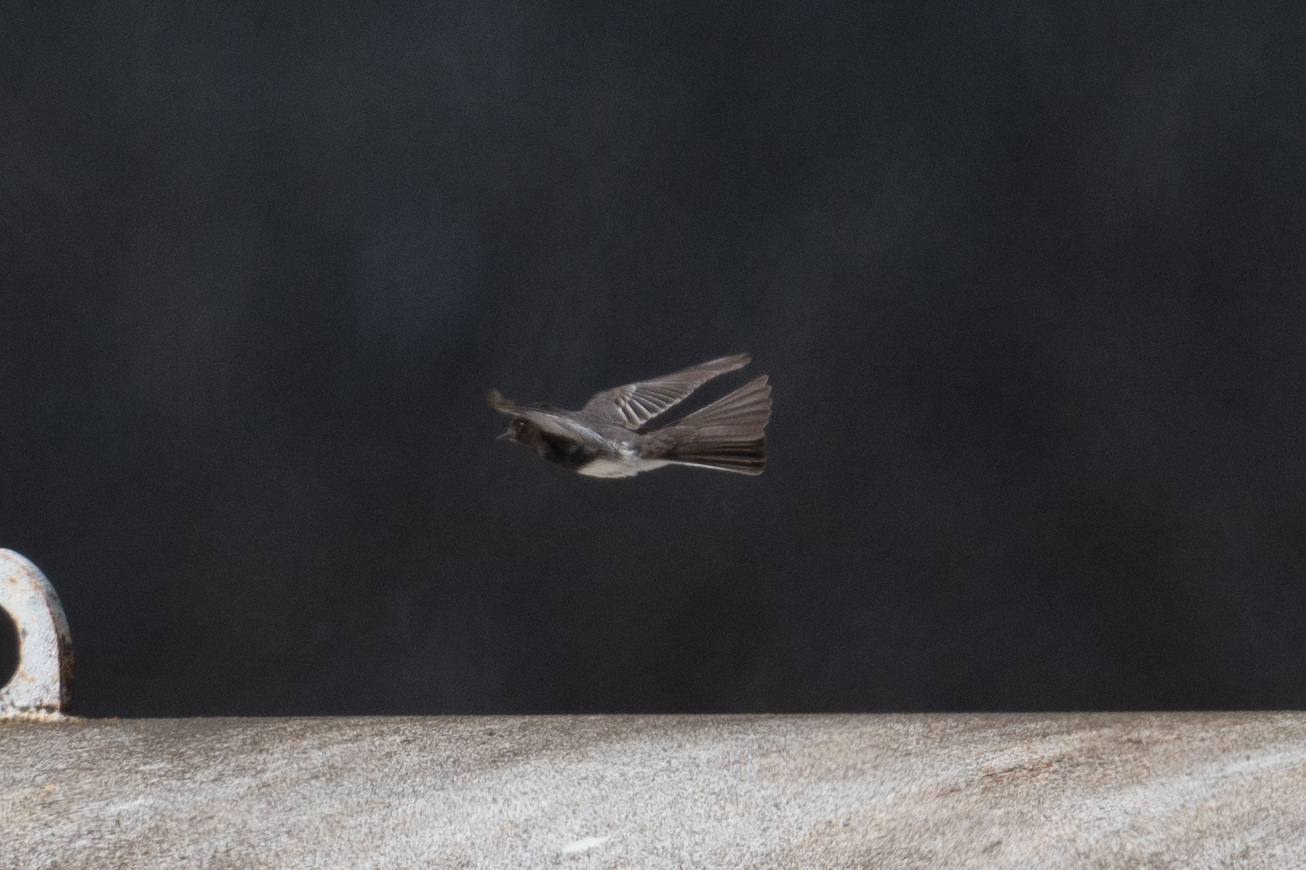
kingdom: Animalia
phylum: Chordata
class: Aves
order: Passeriformes
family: Tyrannidae
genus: Sayornis
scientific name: Sayornis nigricans
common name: Black phoebe
